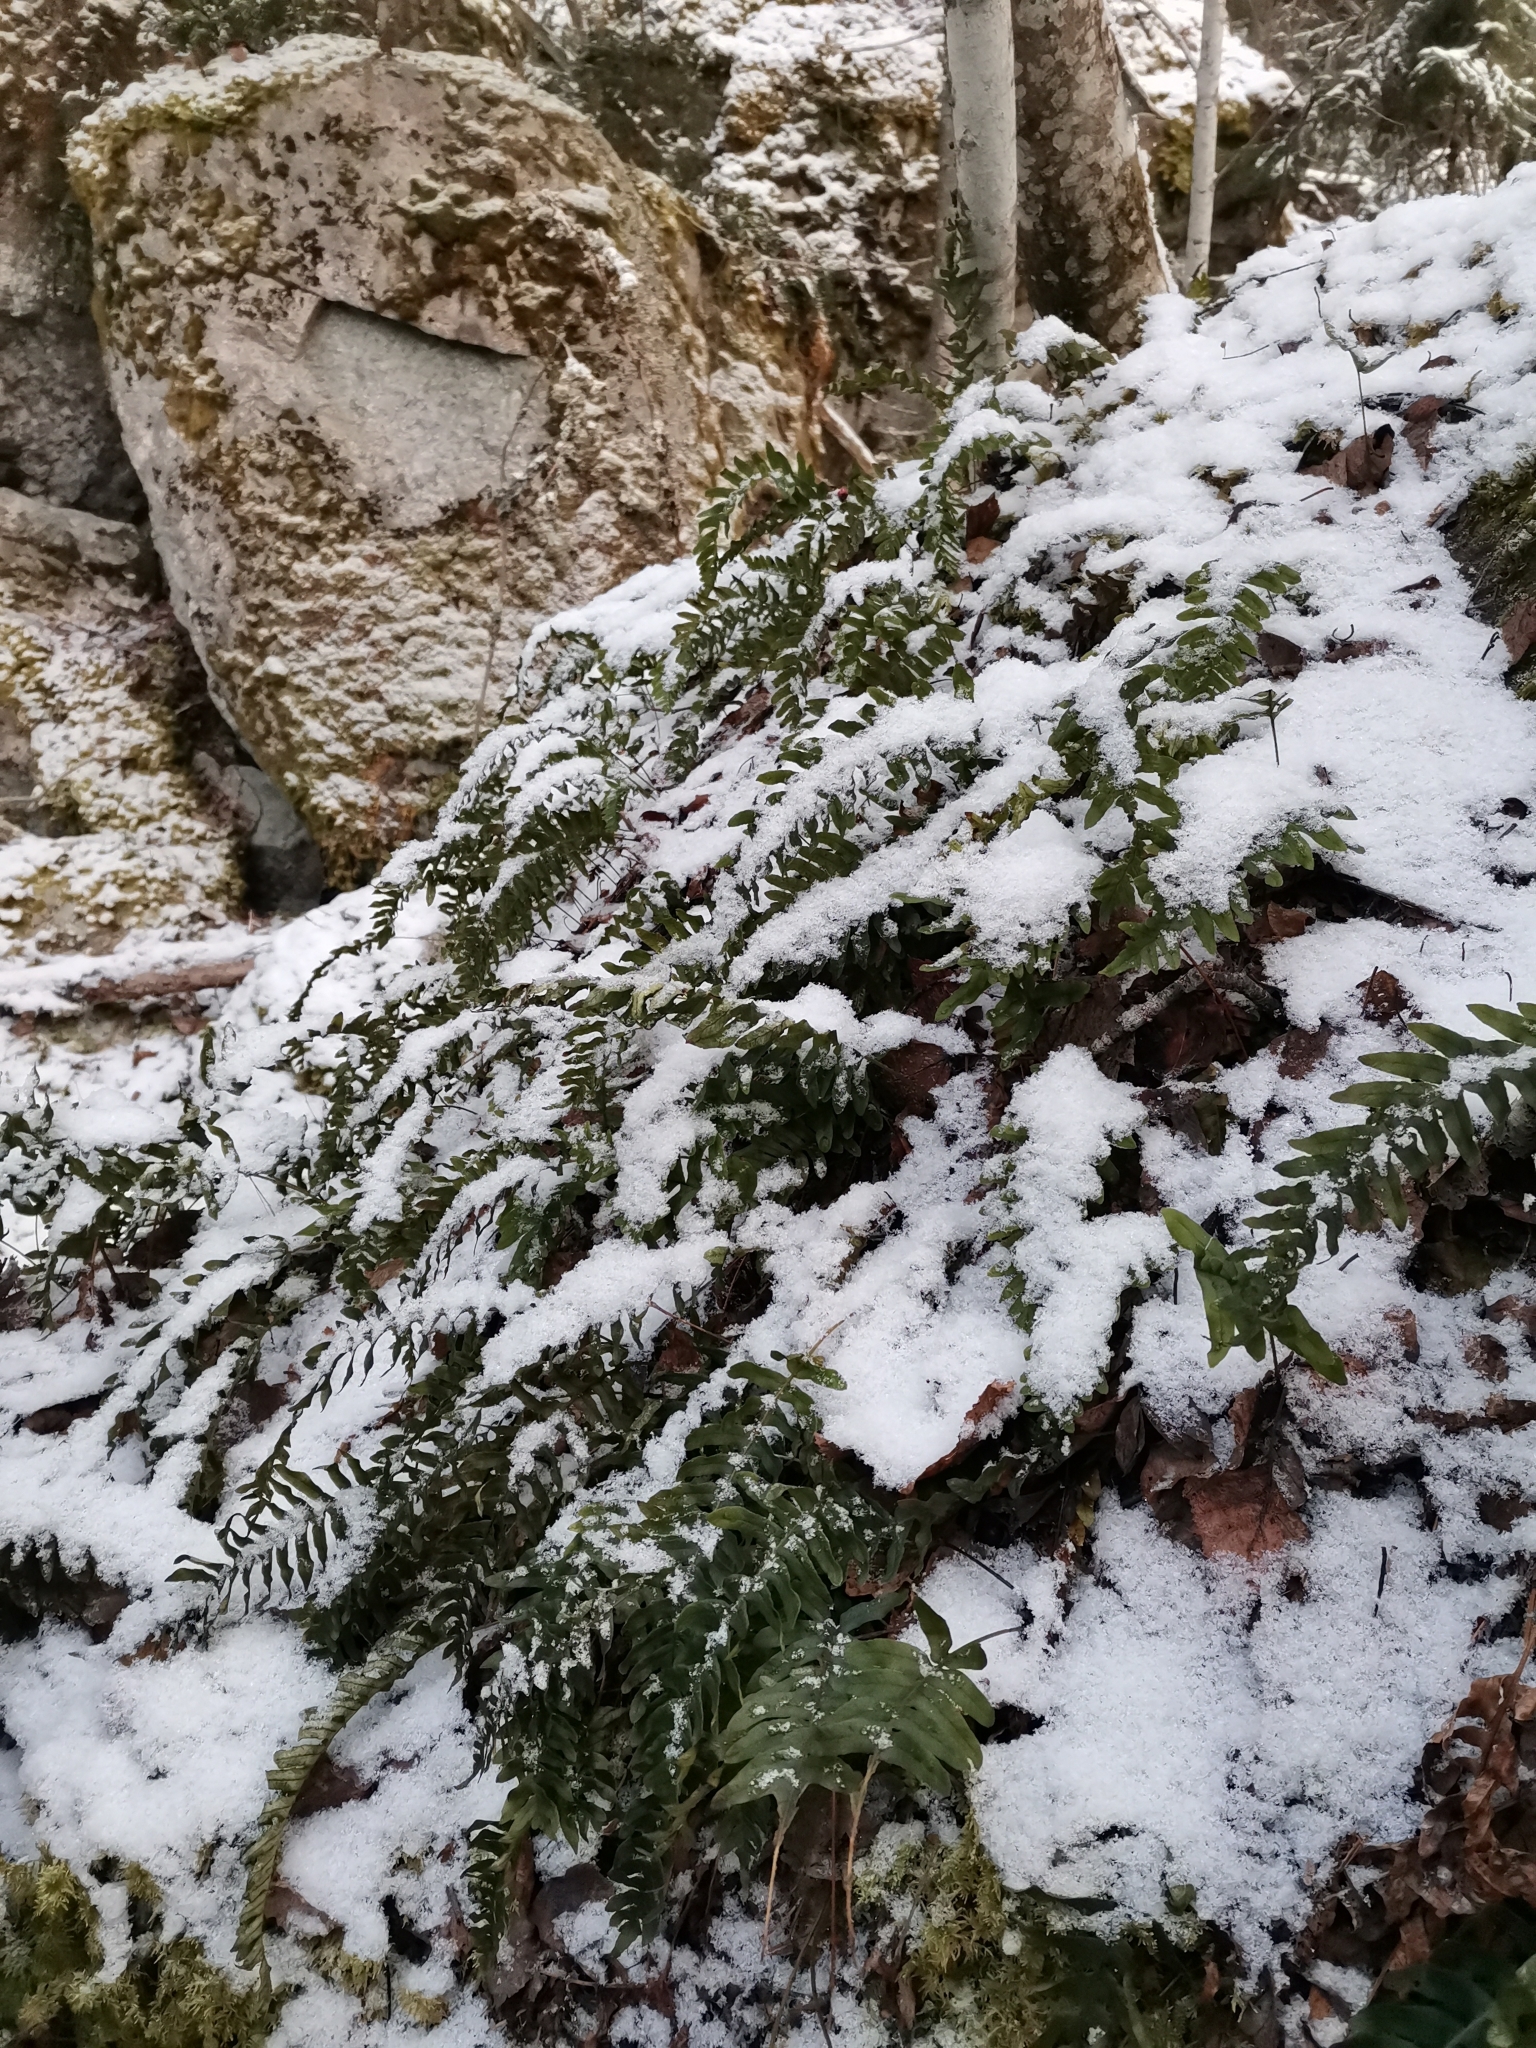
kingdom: Plantae
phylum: Tracheophyta
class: Polypodiopsida
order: Polypodiales
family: Polypodiaceae
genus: Polypodium
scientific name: Polypodium vulgare
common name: Common polypody
